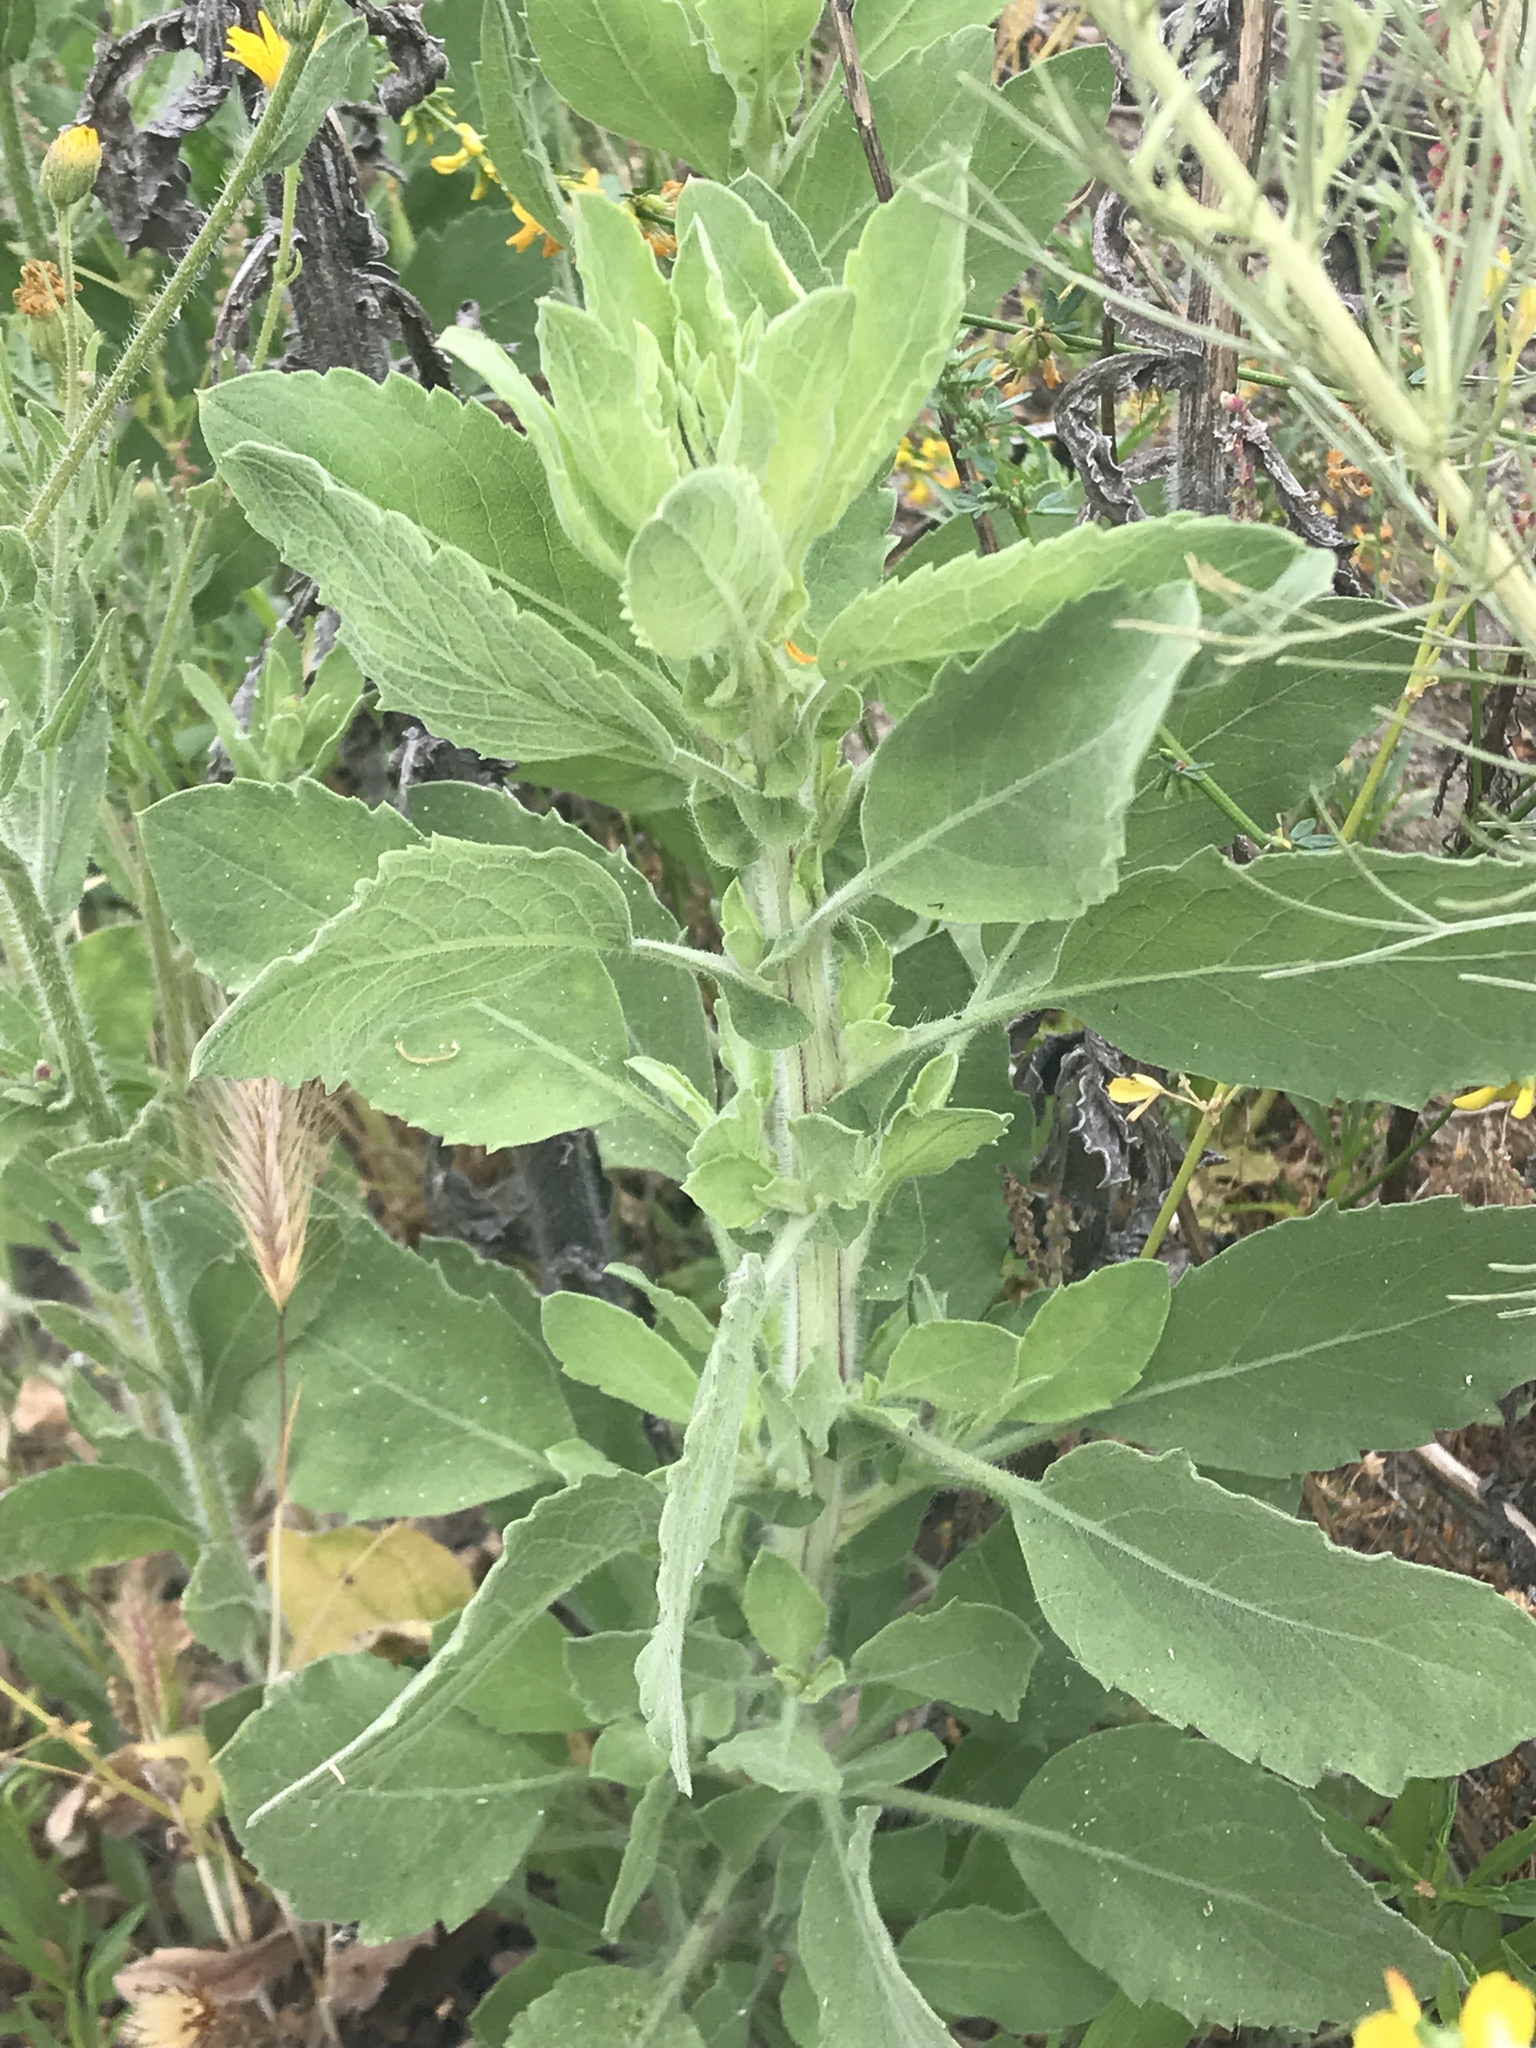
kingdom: Plantae
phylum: Tracheophyta
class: Magnoliopsida
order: Asterales
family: Asteraceae
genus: Heterotheca
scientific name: Heterotheca grandiflora
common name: Telegraphweed
